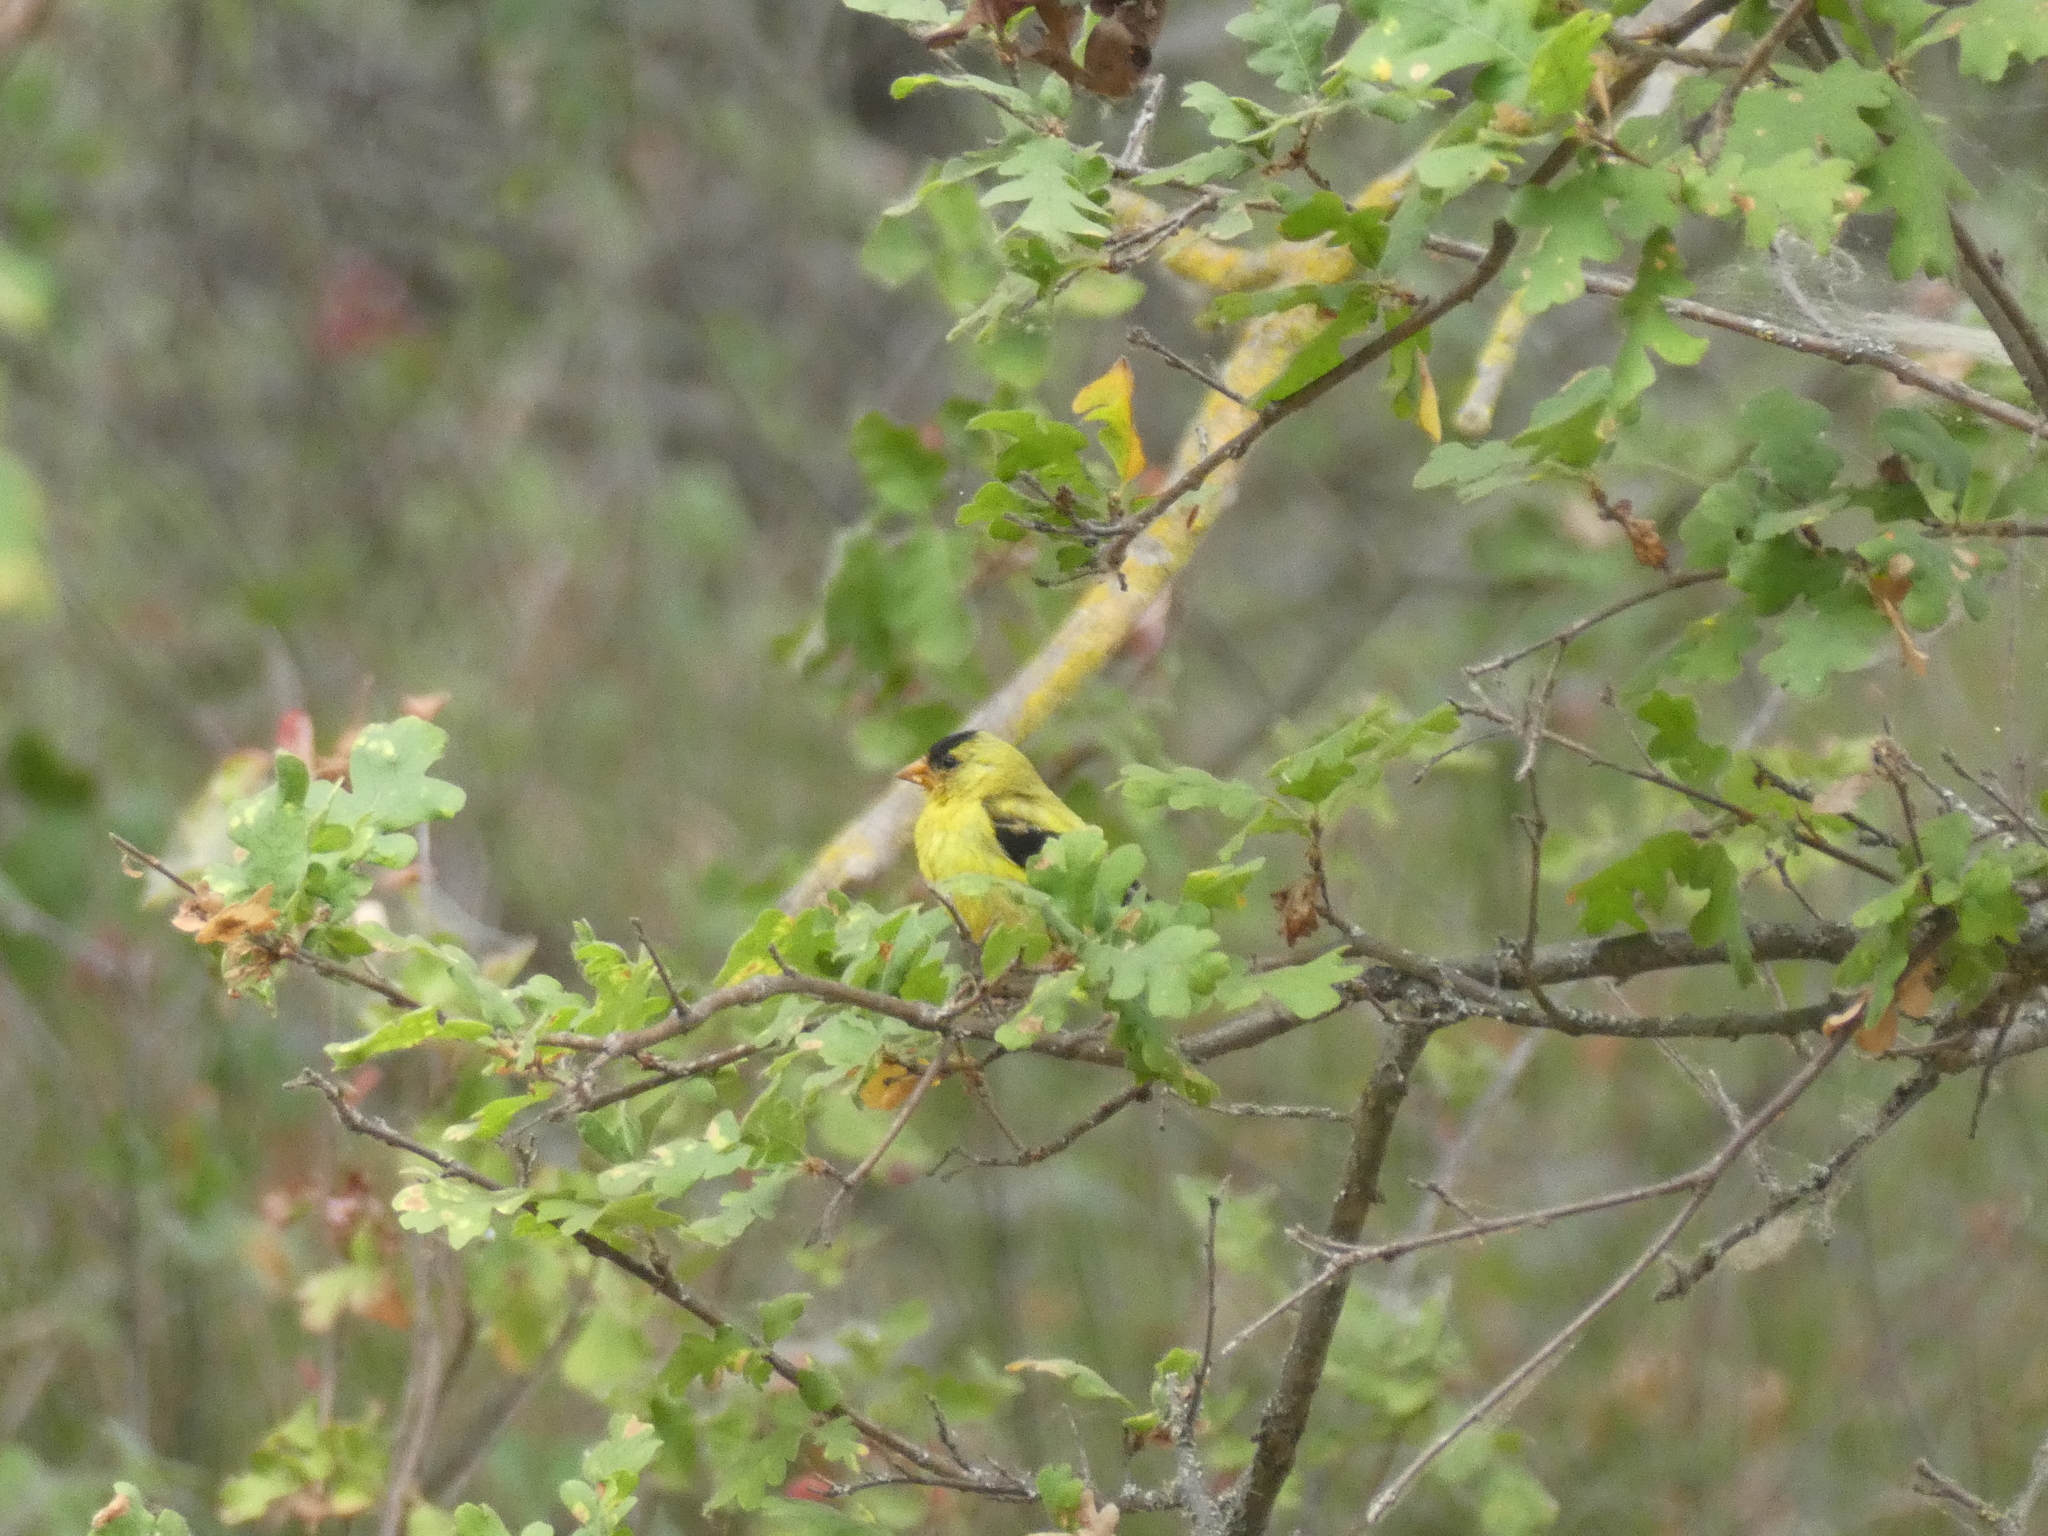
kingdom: Animalia
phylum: Chordata
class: Aves
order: Passeriformes
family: Fringillidae
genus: Spinus
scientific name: Spinus tristis
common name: American goldfinch
